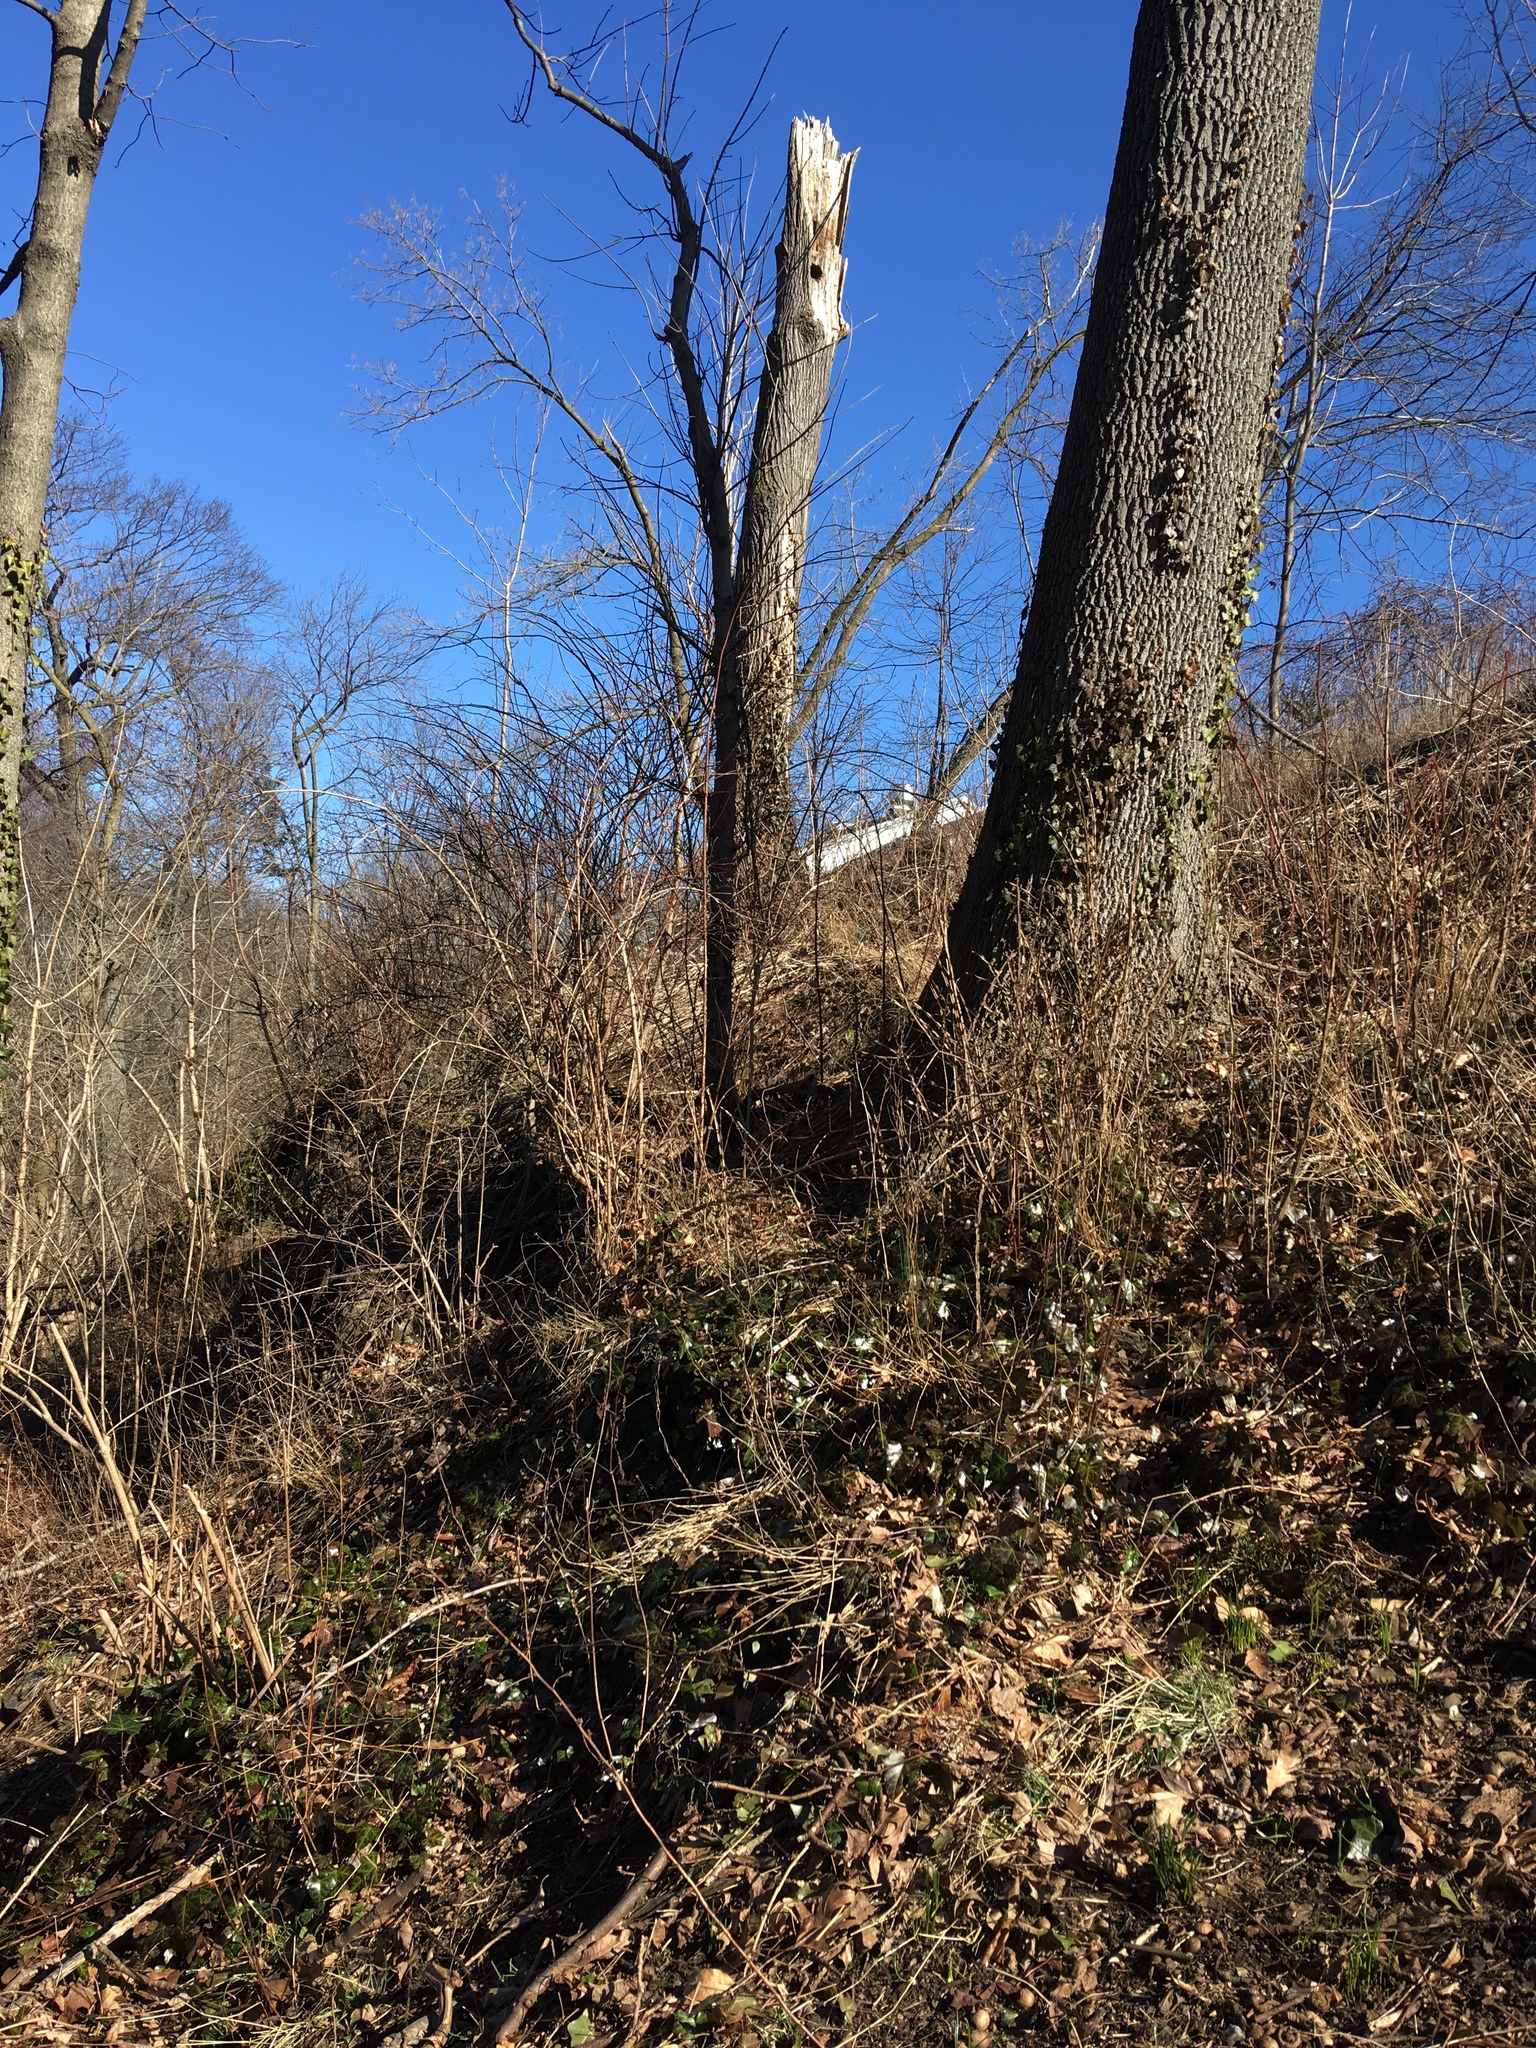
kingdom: Plantae
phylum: Tracheophyta
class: Magnoliopsida
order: Apiales
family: Araliaceae
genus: Hedera
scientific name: Hedera helix
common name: Ivy
